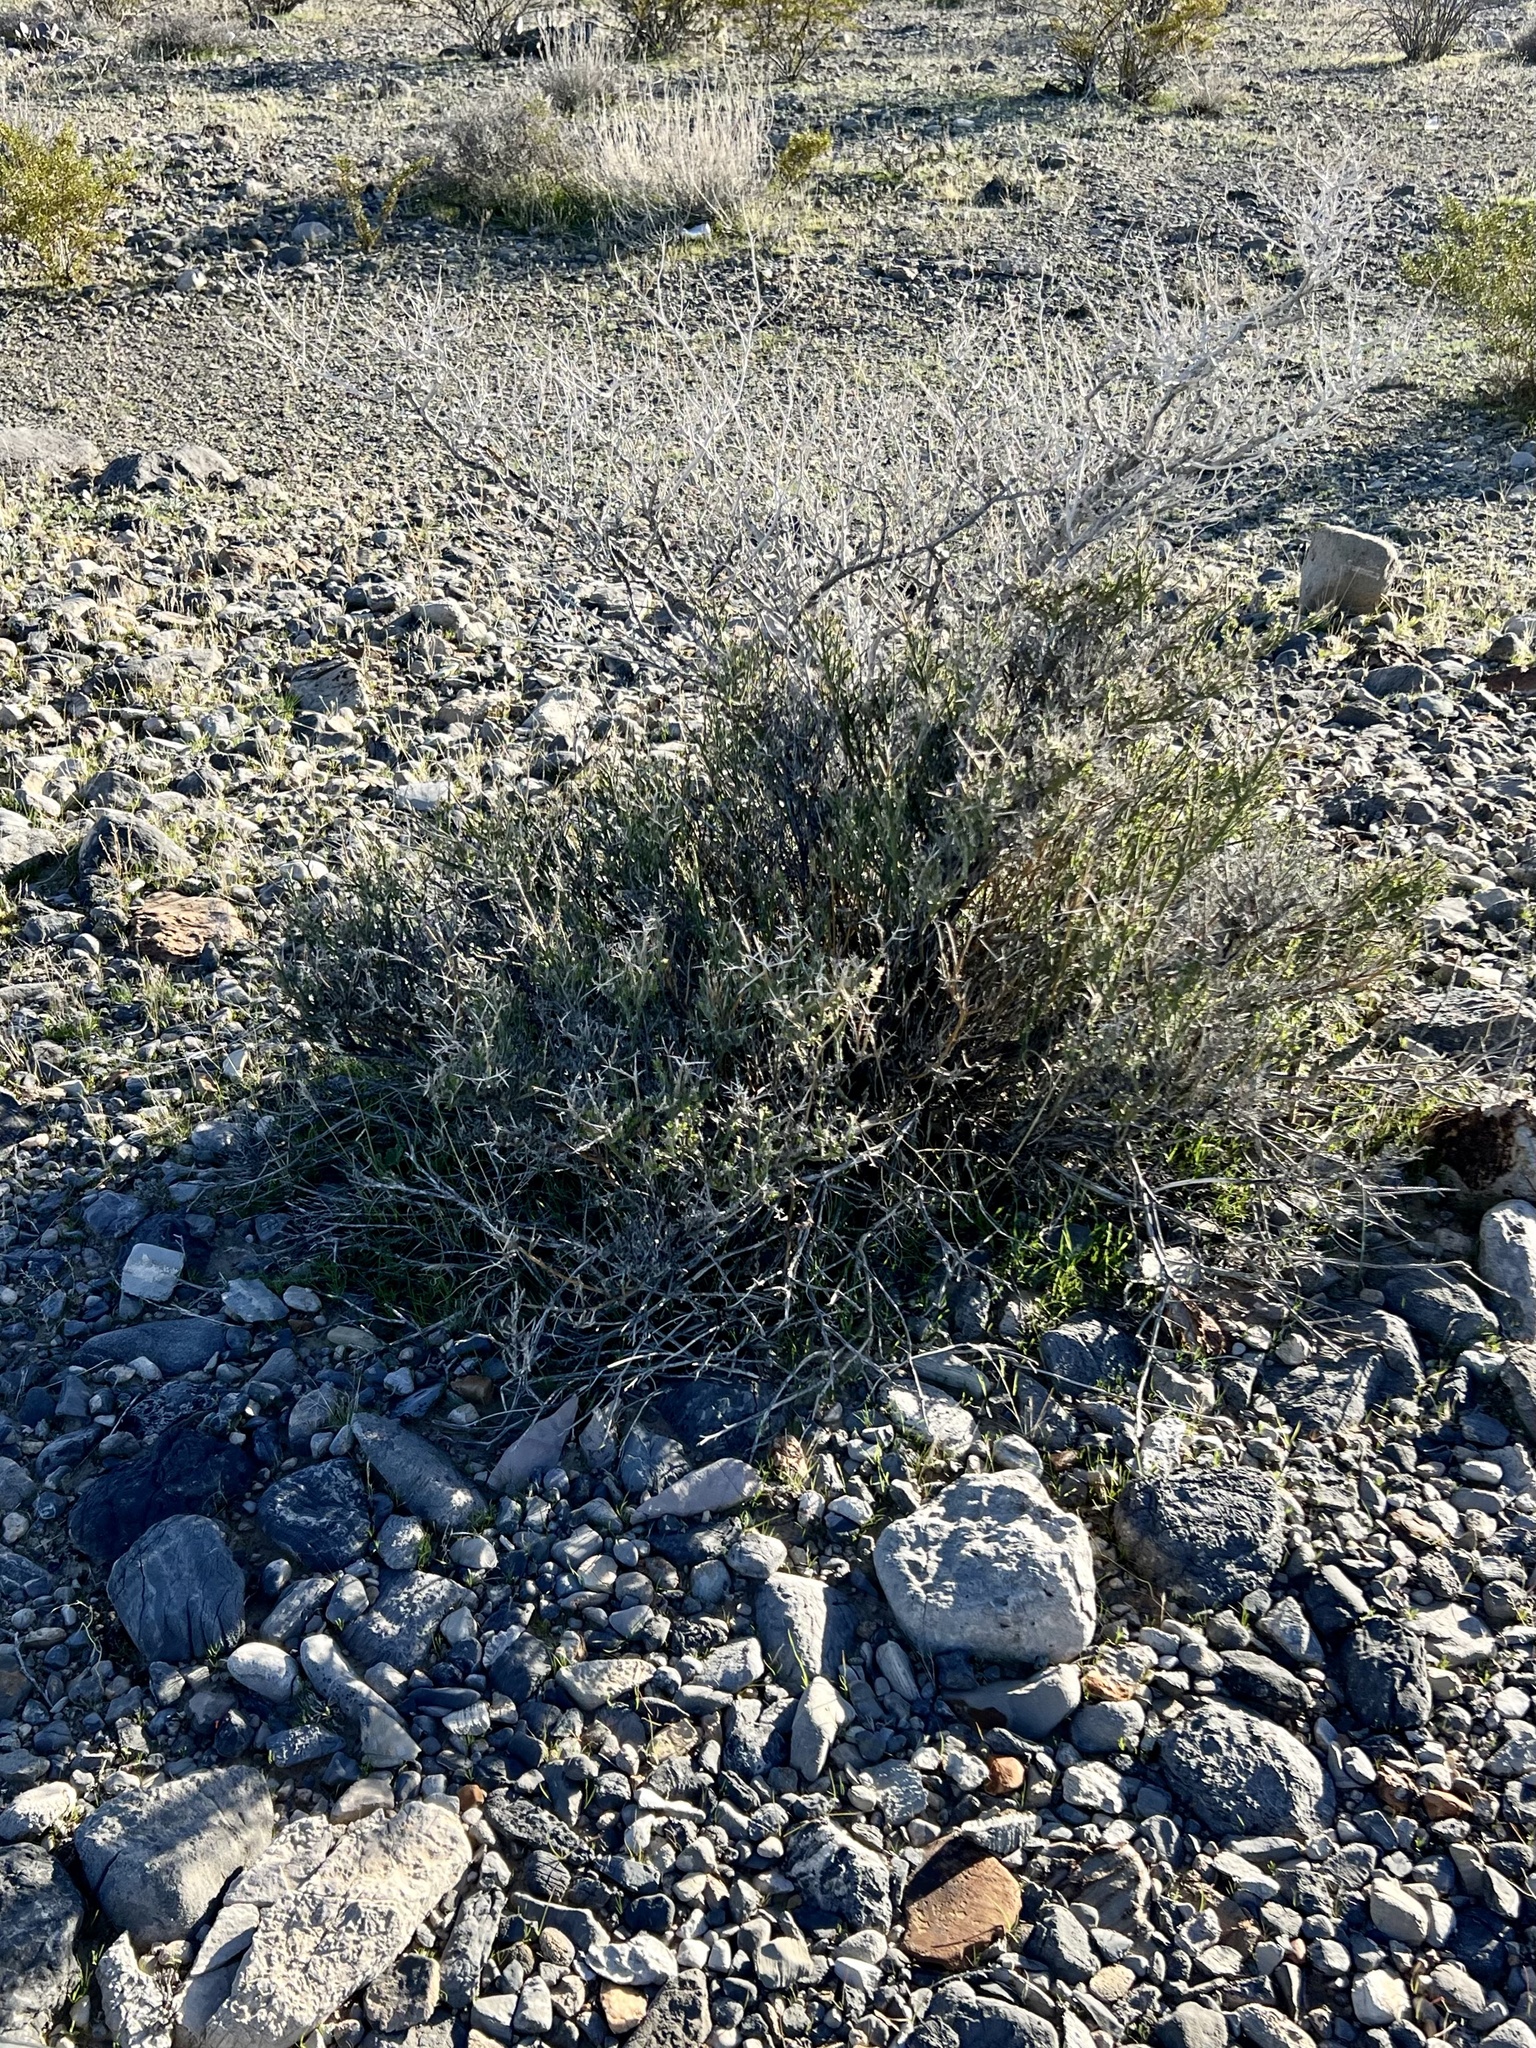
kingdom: Plantae
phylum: Tracheophyta
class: Magnoliopsida
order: Lamiales
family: Oleaceae
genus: Menodora
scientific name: Menodora spinescens
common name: Spiny menodora
